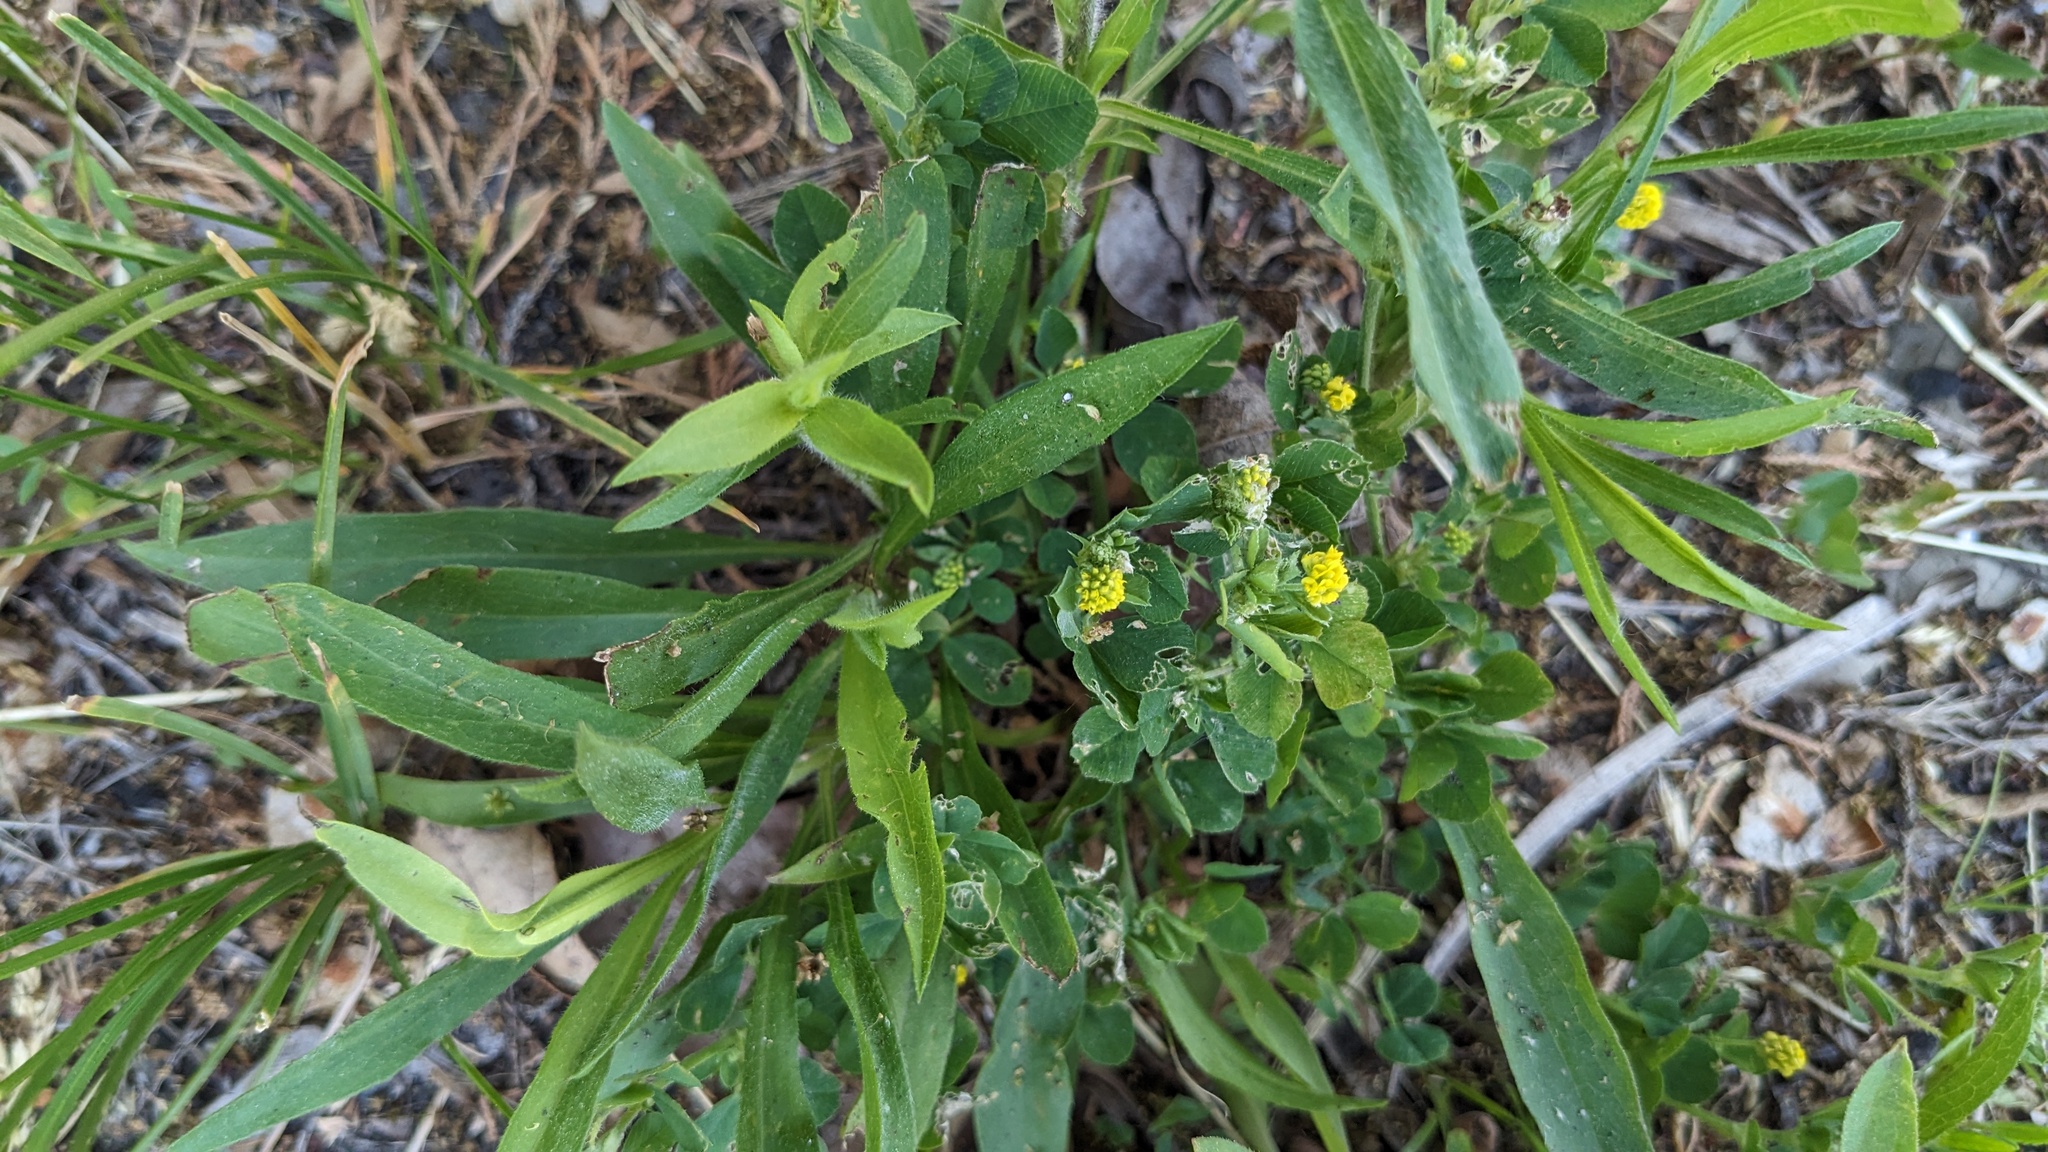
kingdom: Plantae
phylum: Tracheophyta
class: Magnoliopsida
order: Fabales
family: Fabaceae
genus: Medicago
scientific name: Medicago lupulina
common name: Black medick
